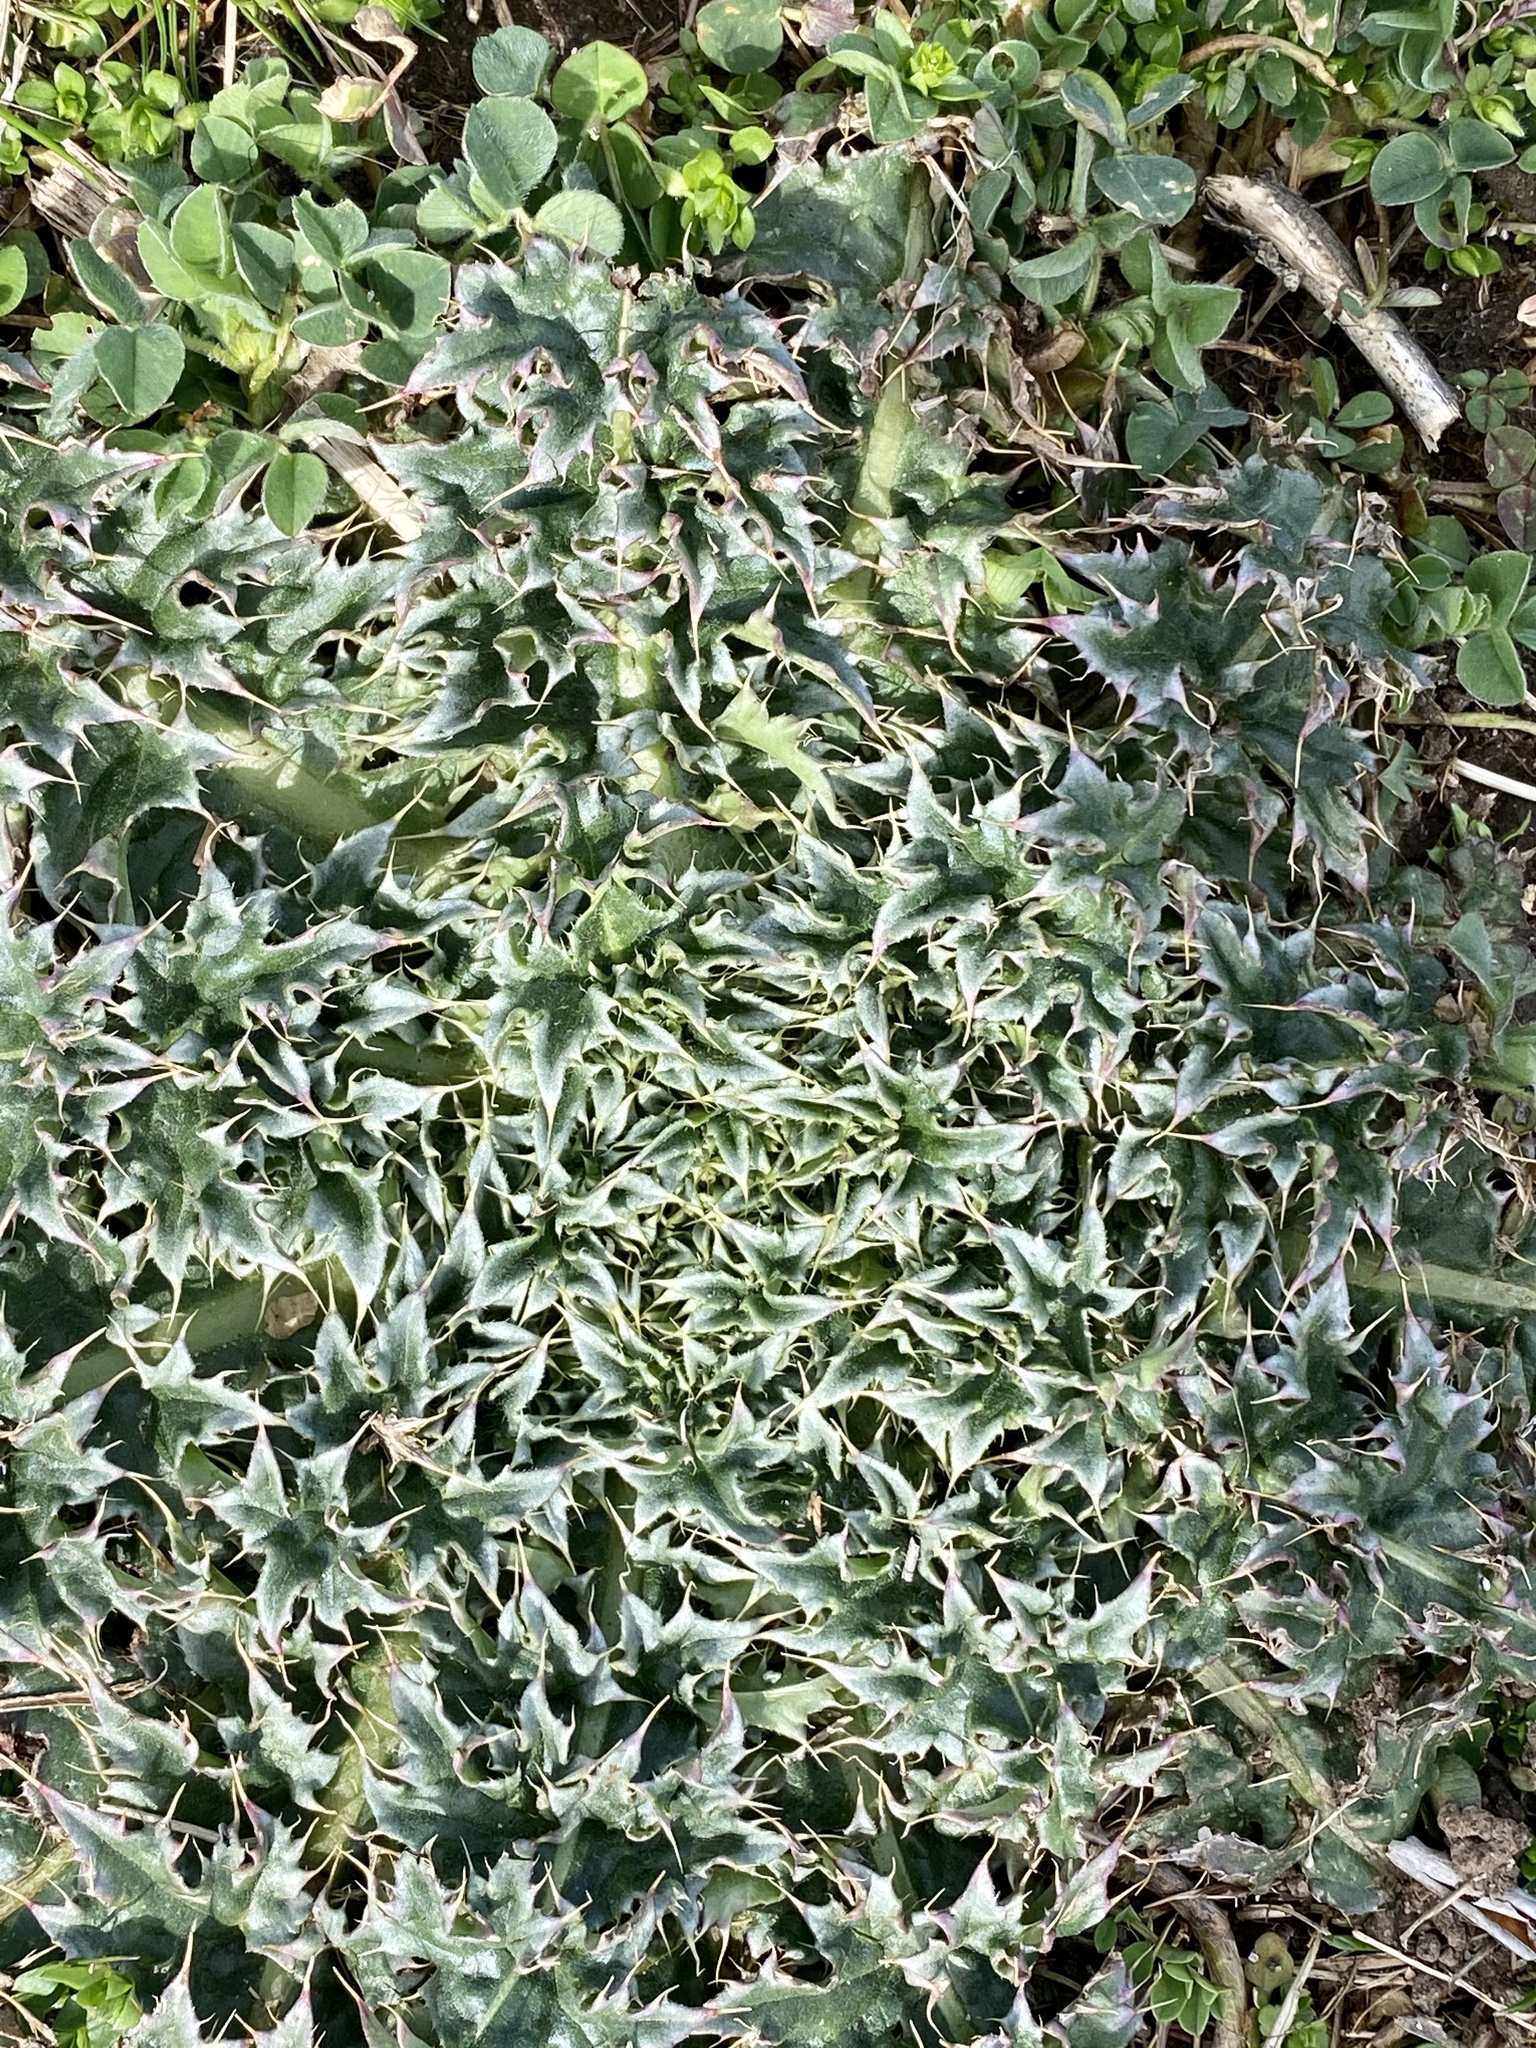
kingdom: Plantae
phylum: Tracheophyta
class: Magnoliopsida
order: Asterales
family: Asteraceae
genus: Carduus
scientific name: Carduus nutans
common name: Musk thistle
